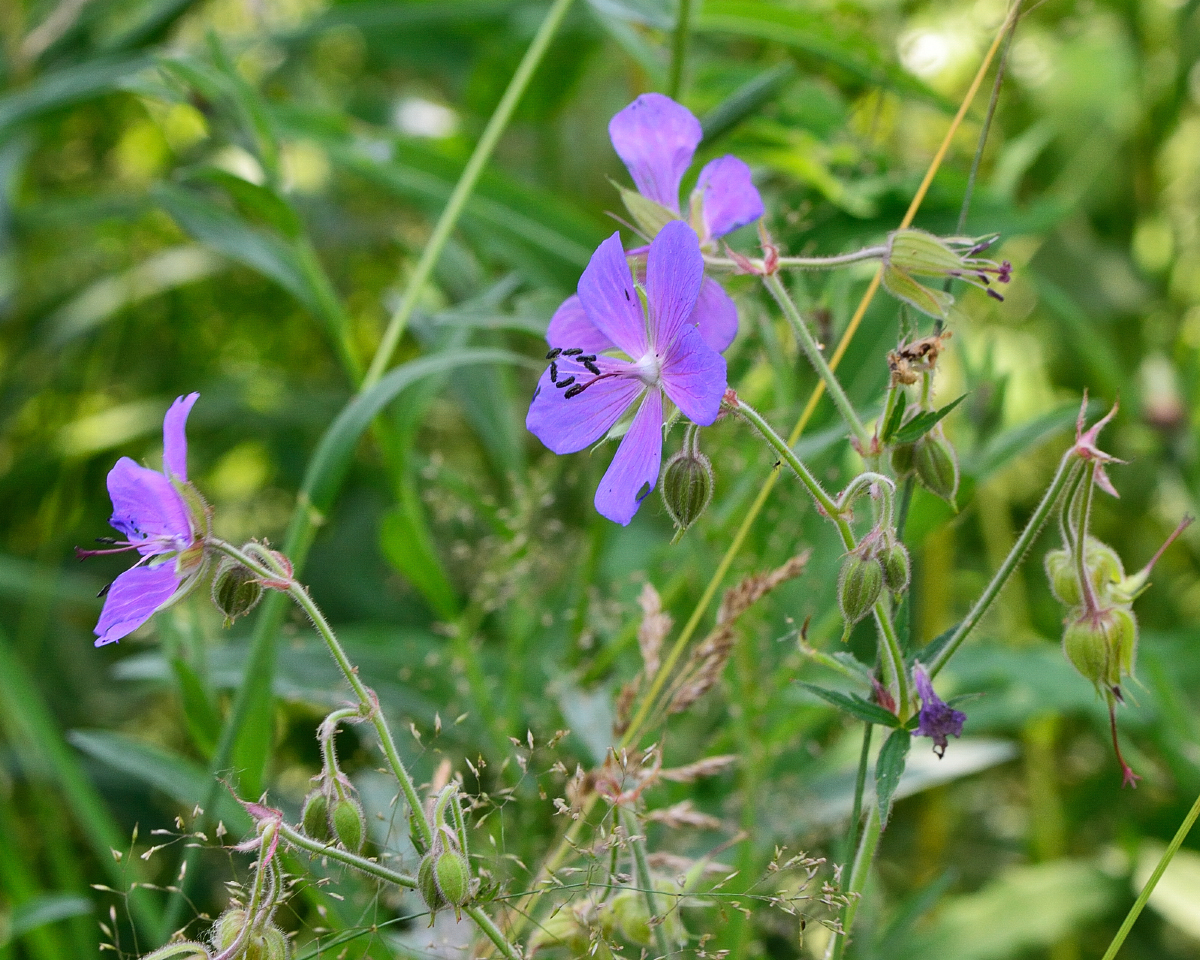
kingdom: Plantae
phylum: Tracheophyta
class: Magnoliopsida
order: Geraniales
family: Geraniaceae
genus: Geranium
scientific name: Geranium pratense
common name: Meadow crane's-bill
